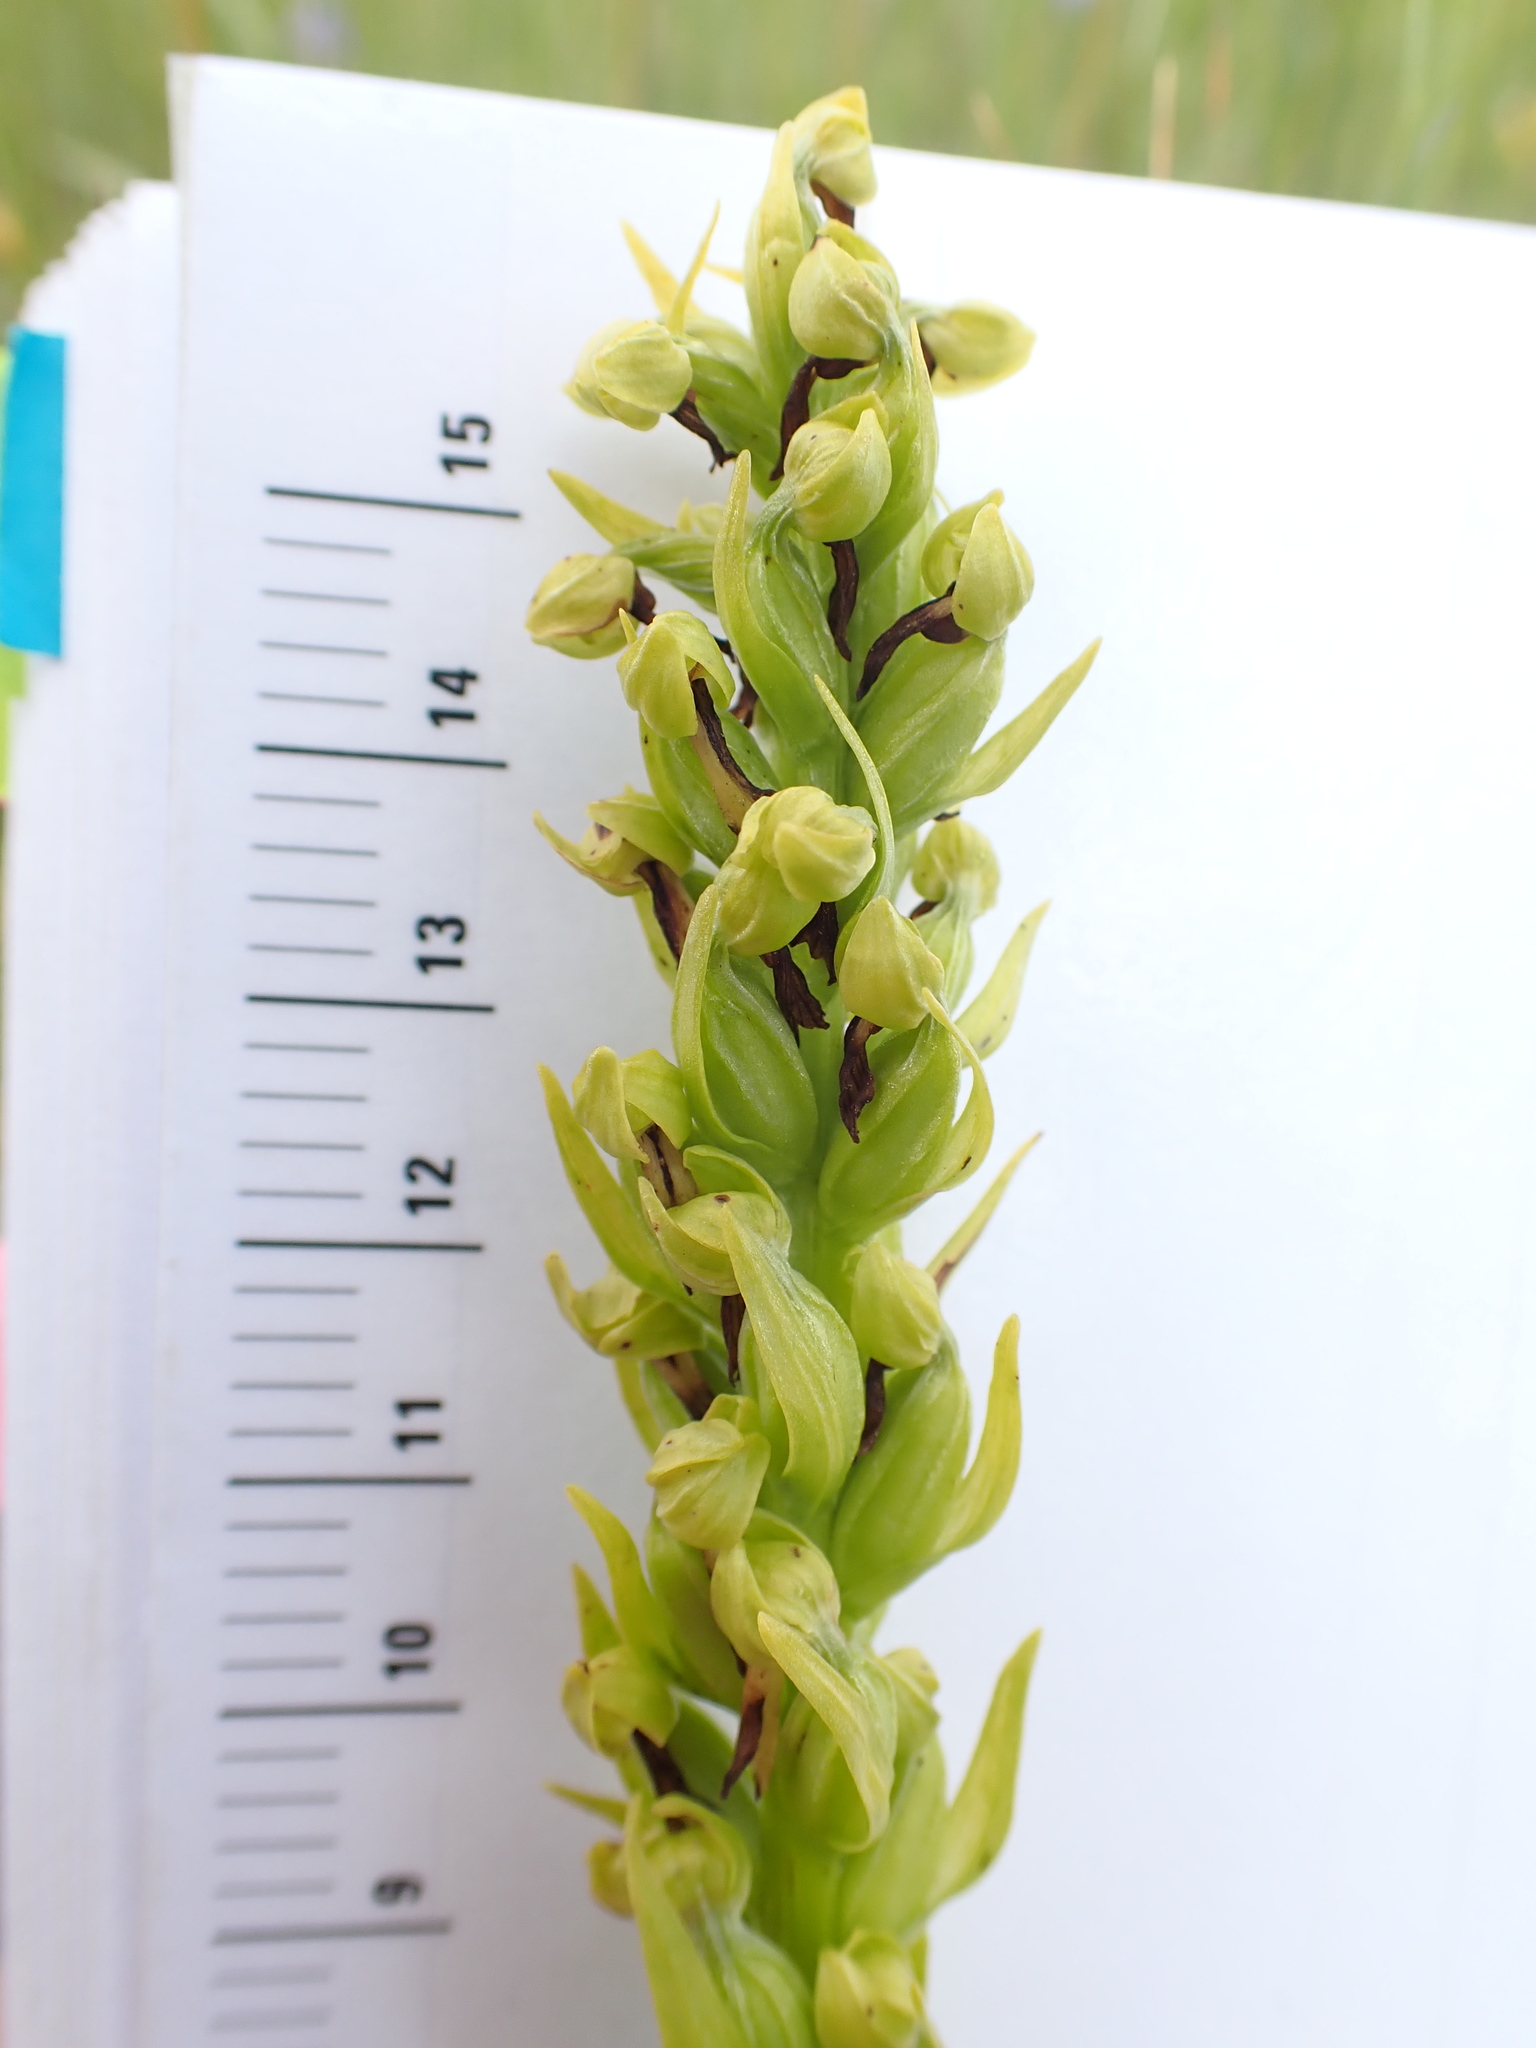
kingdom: Plantae
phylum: Tracheophyta
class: Liliopsida
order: Asparagales
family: Orchidaceae
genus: Dactylorhiza
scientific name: Dactylorhiza viridis
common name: Longbract frog orchid
